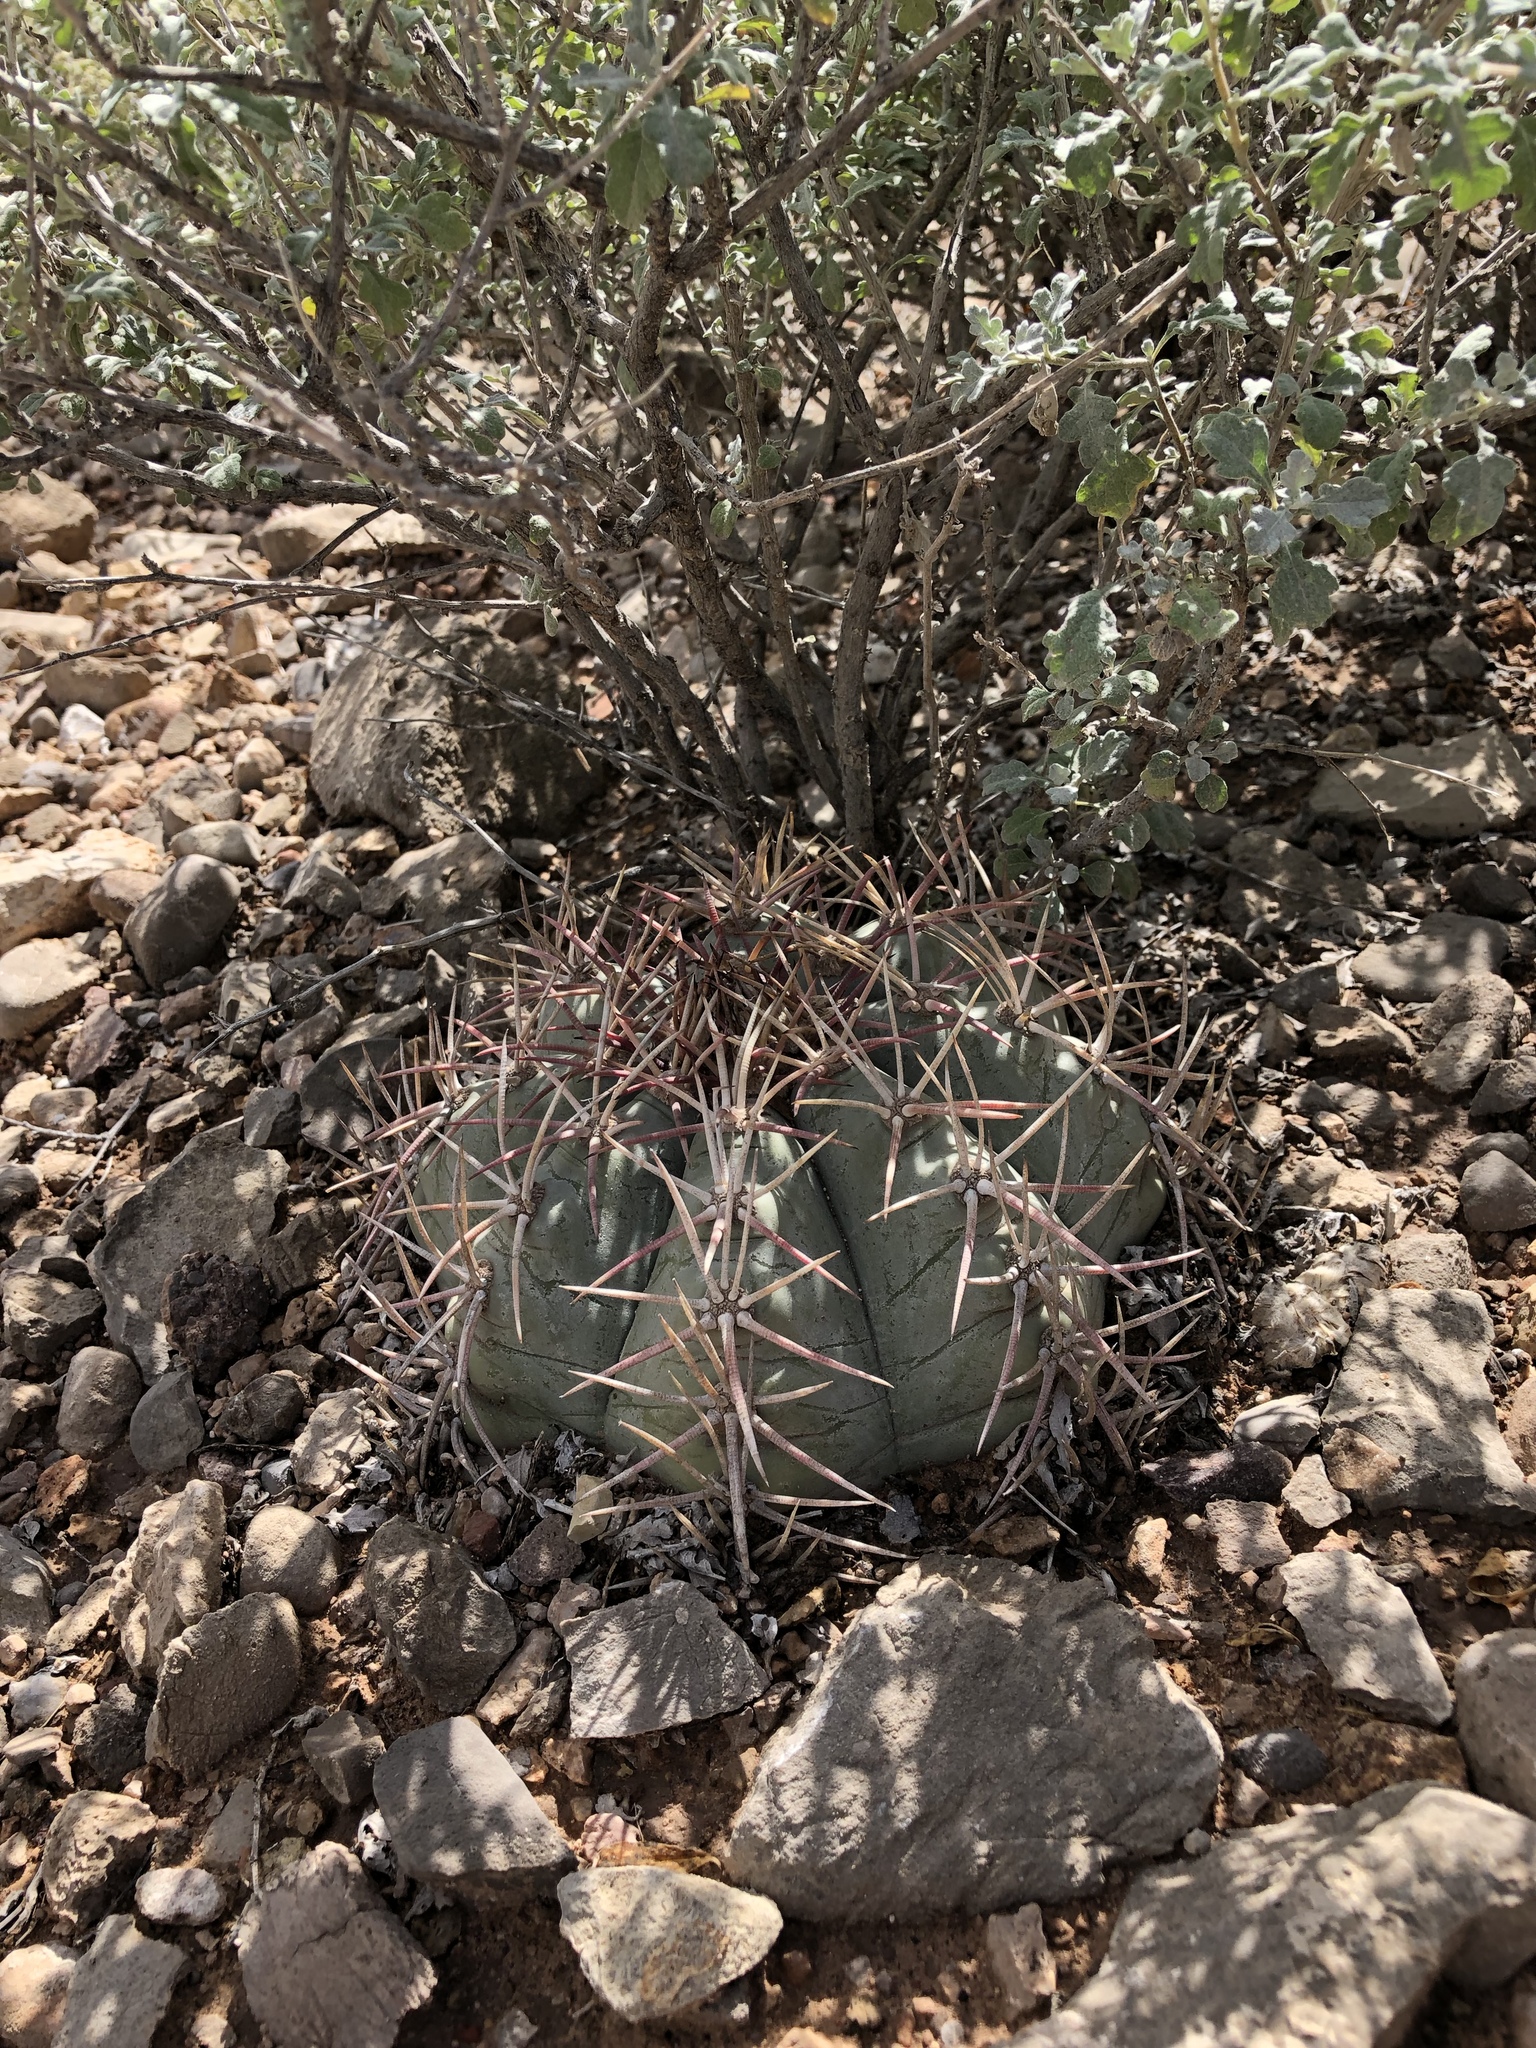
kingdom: Plantae
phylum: Tracheophyta
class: Magnoliopsida
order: Caryophyllales
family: Cactaceae
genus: Echinocactus
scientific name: Echinocactus horizonthalonius
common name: Devilshead
